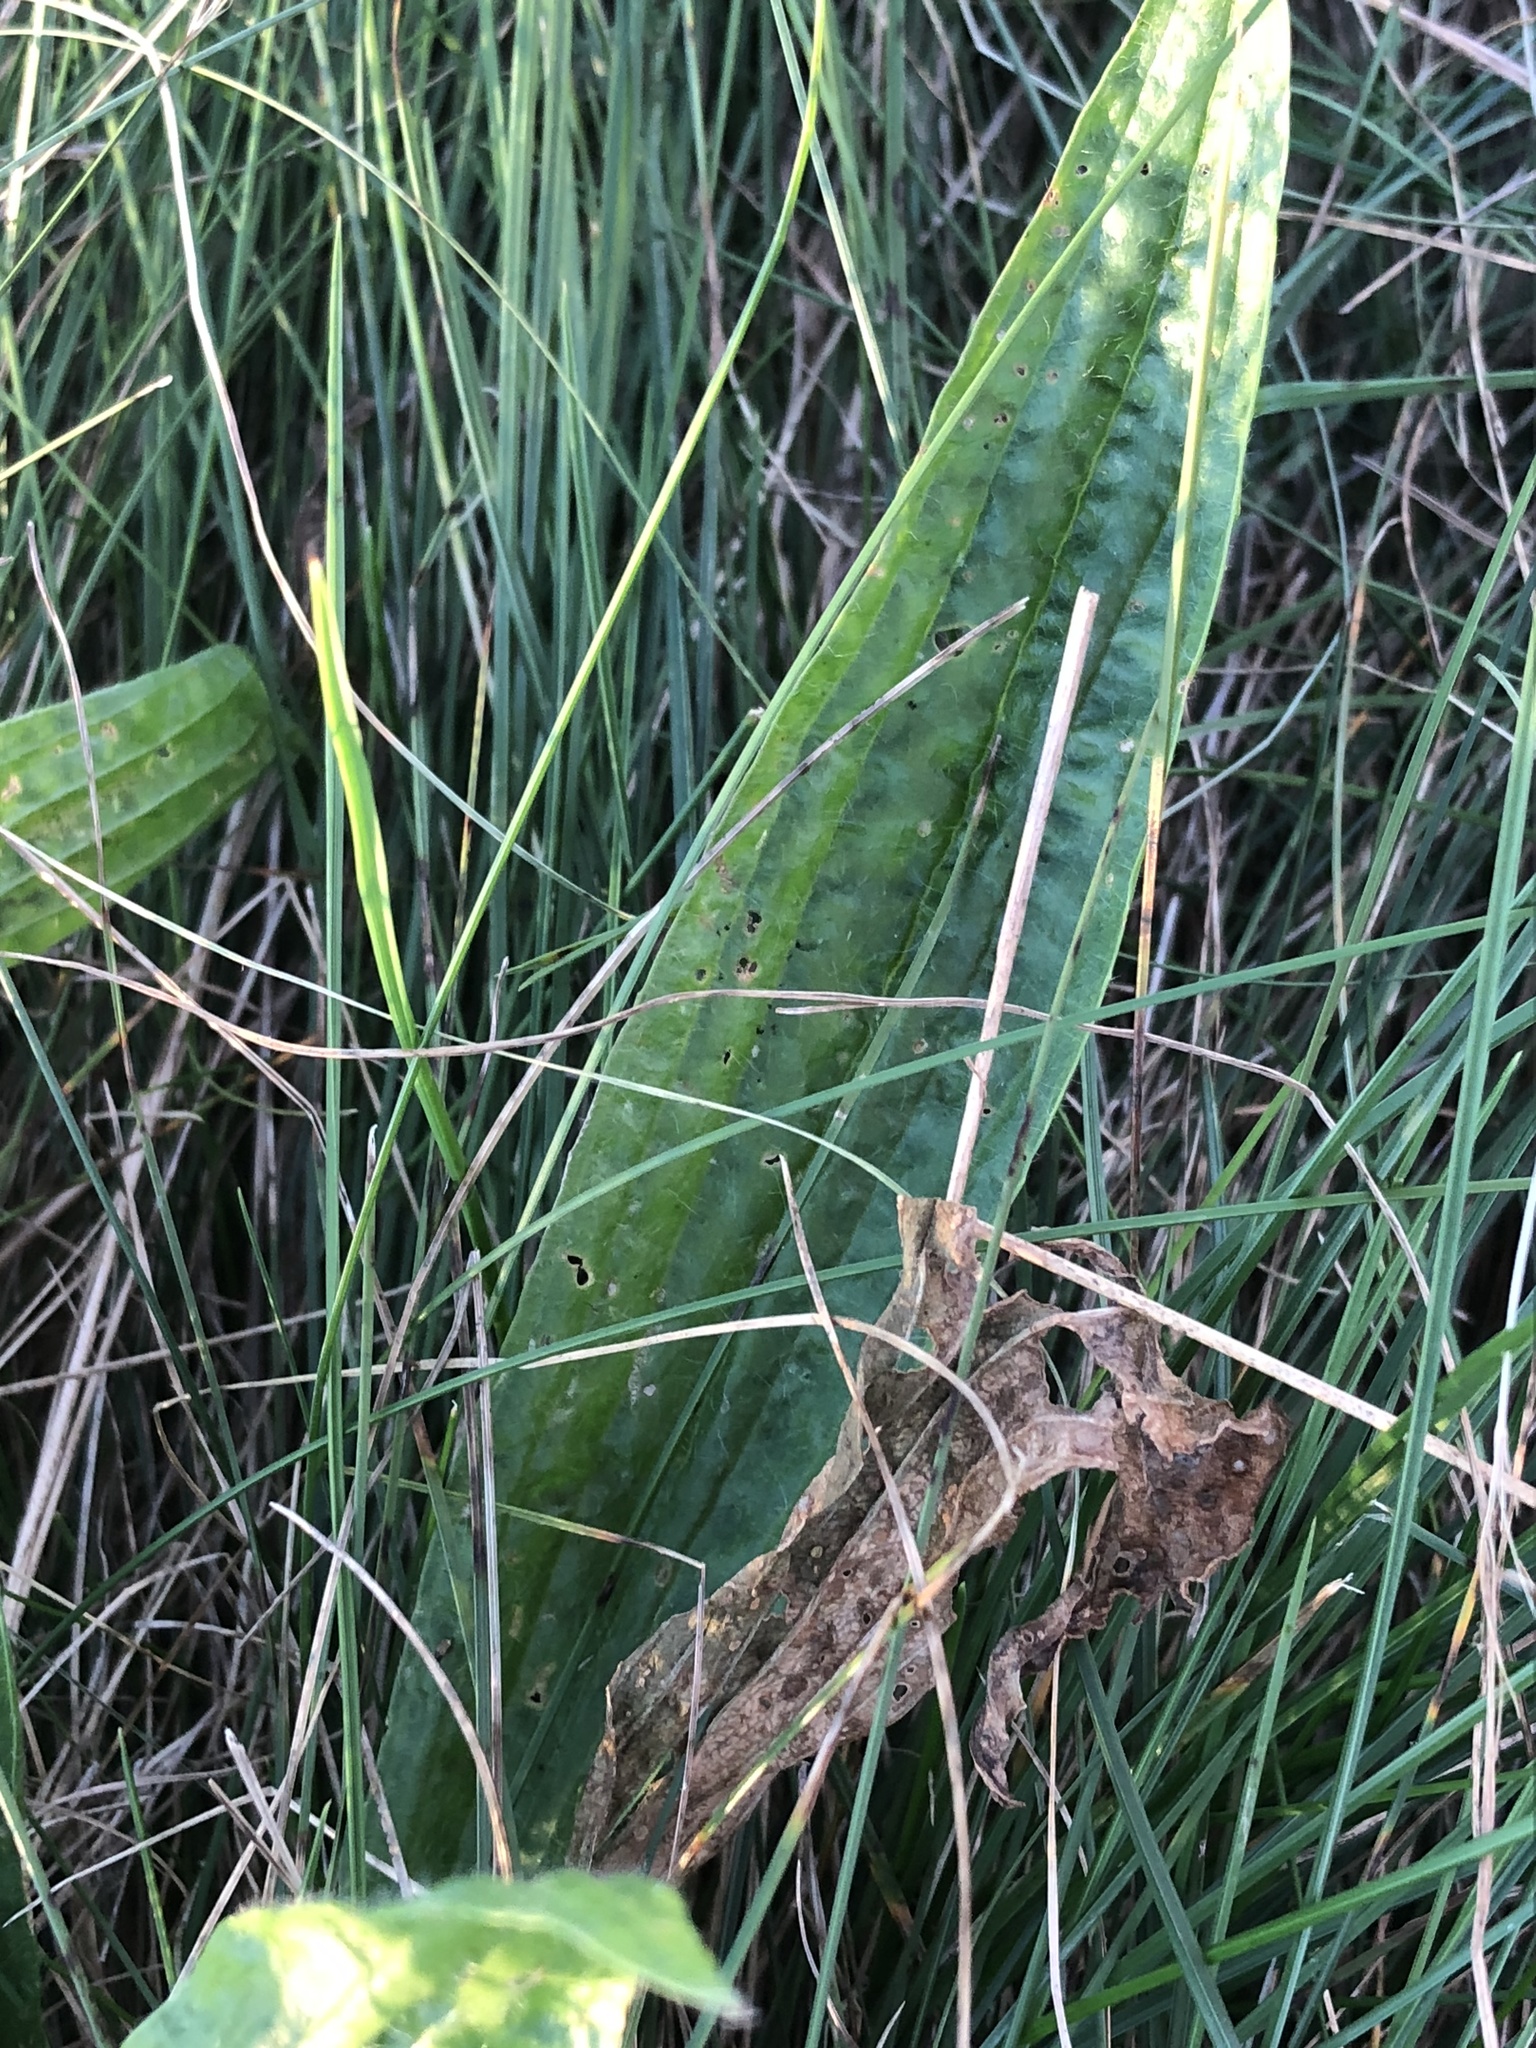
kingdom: Plantae
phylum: Tracheophyta
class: Magnoliopsida
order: Lamiales
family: Plantaginaceae
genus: Plantago
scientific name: Plantago lanceolata
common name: Ribwort plantain
